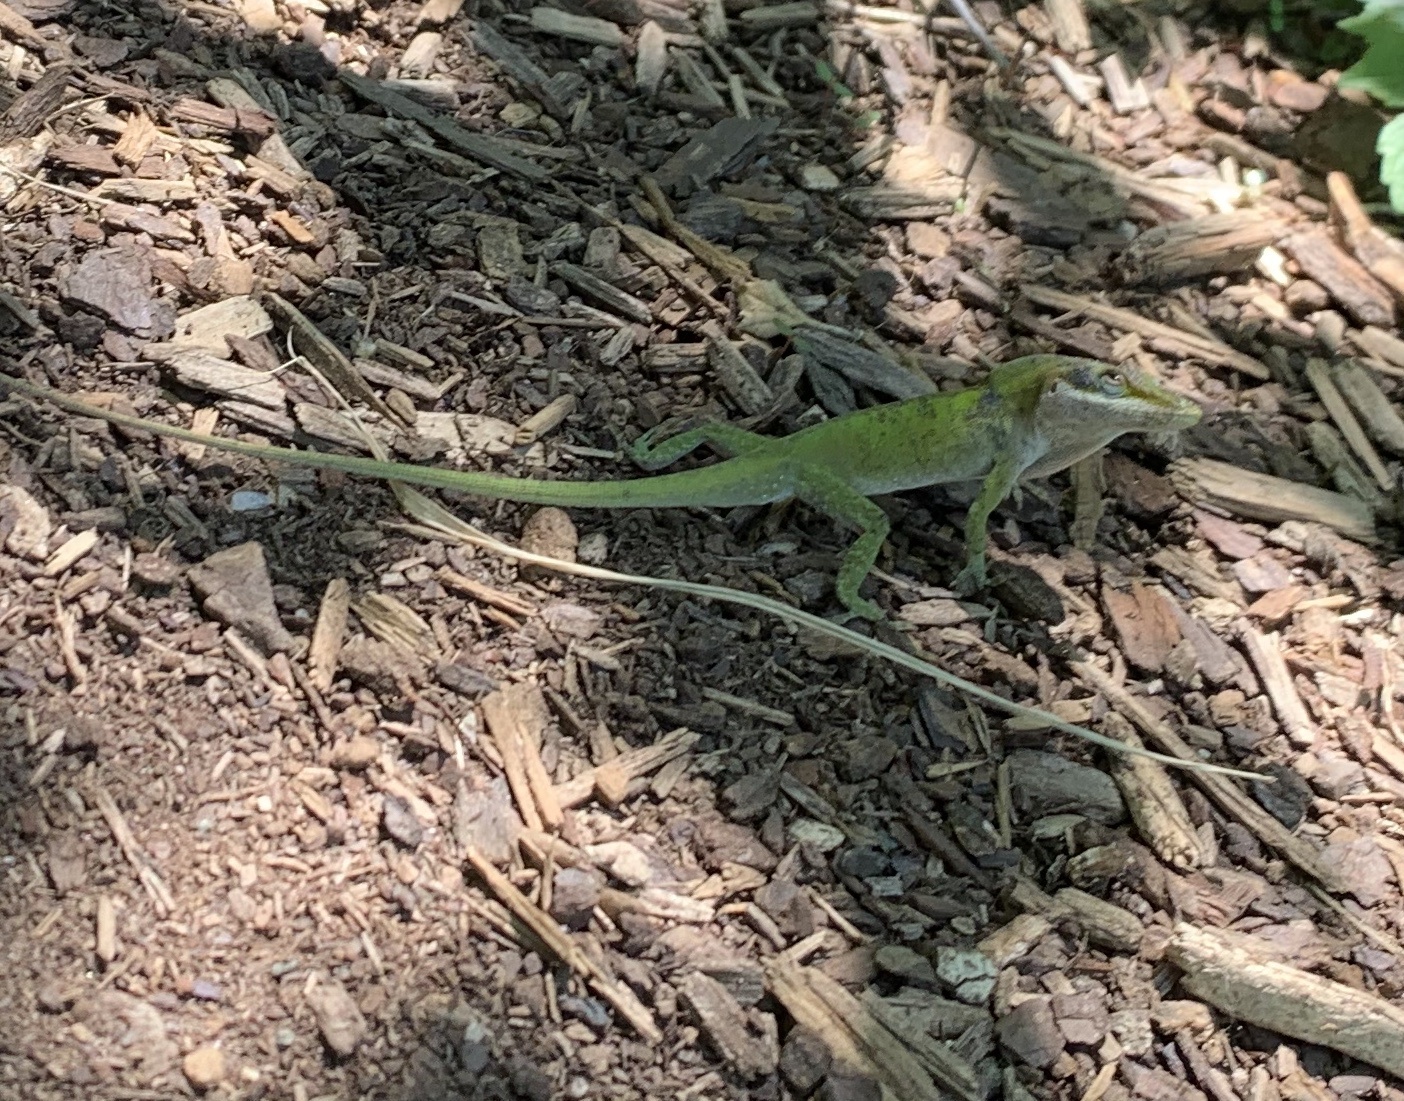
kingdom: Animalia
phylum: Chordata
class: Squamata
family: Dactyloidae
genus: Anolis
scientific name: Anolis carolinensis
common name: Green anole
